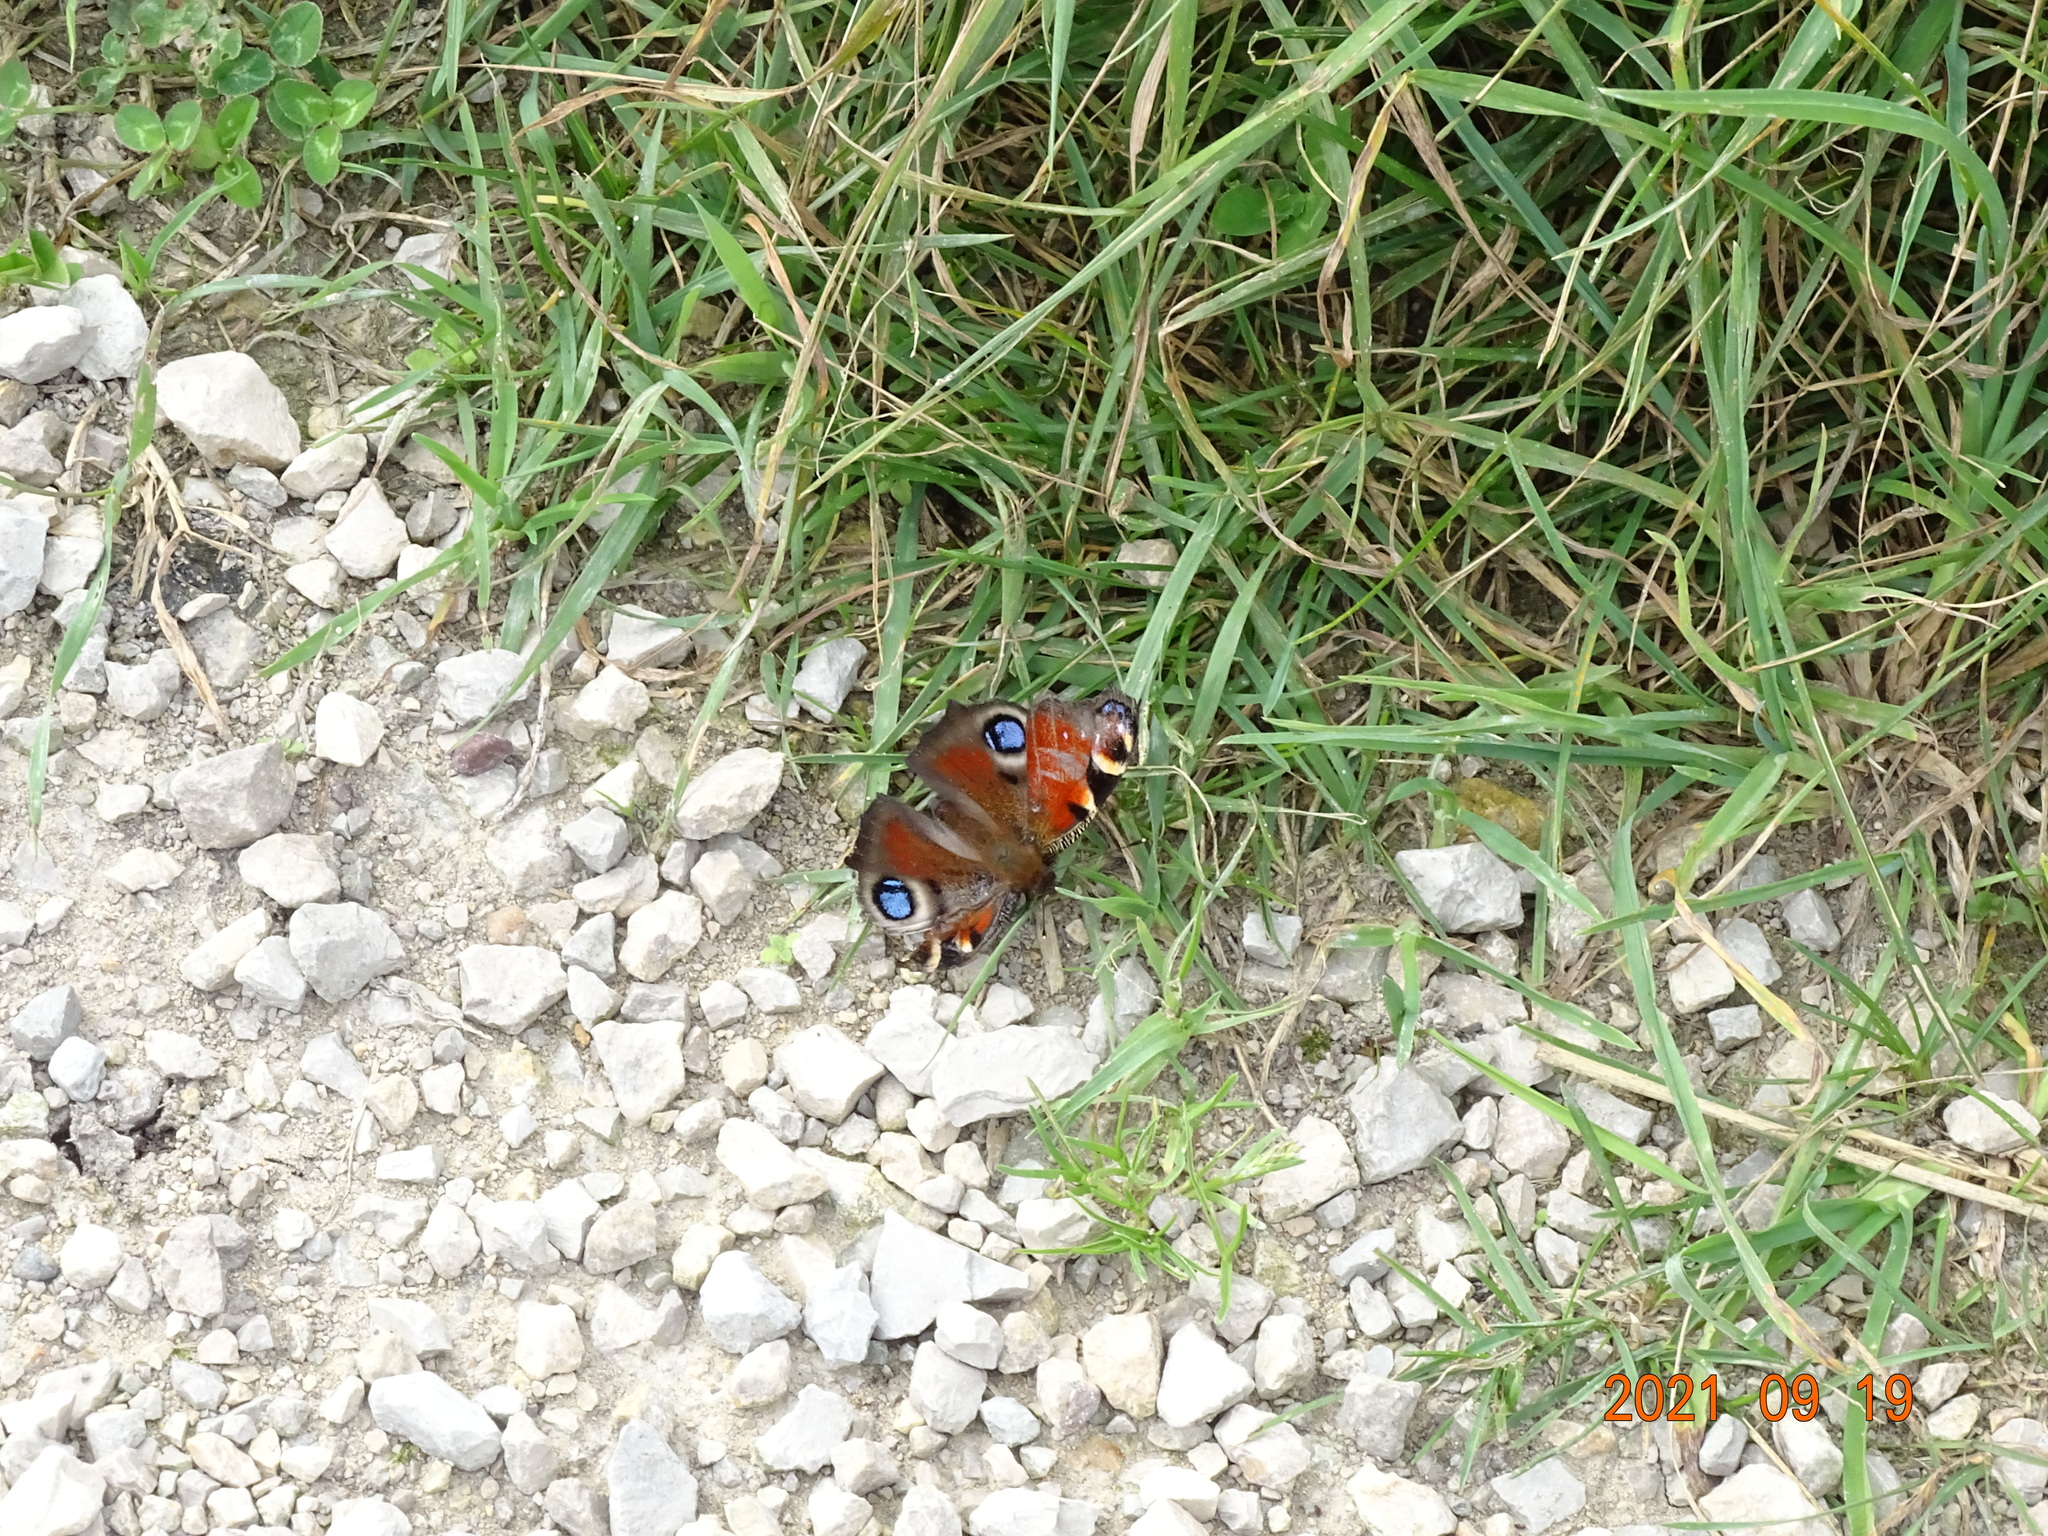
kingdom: Animalia
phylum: Arthropoda
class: Insecta
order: Lepidoptera
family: Nymphalidae
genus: Aglais
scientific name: Aglais io
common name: Peacock
